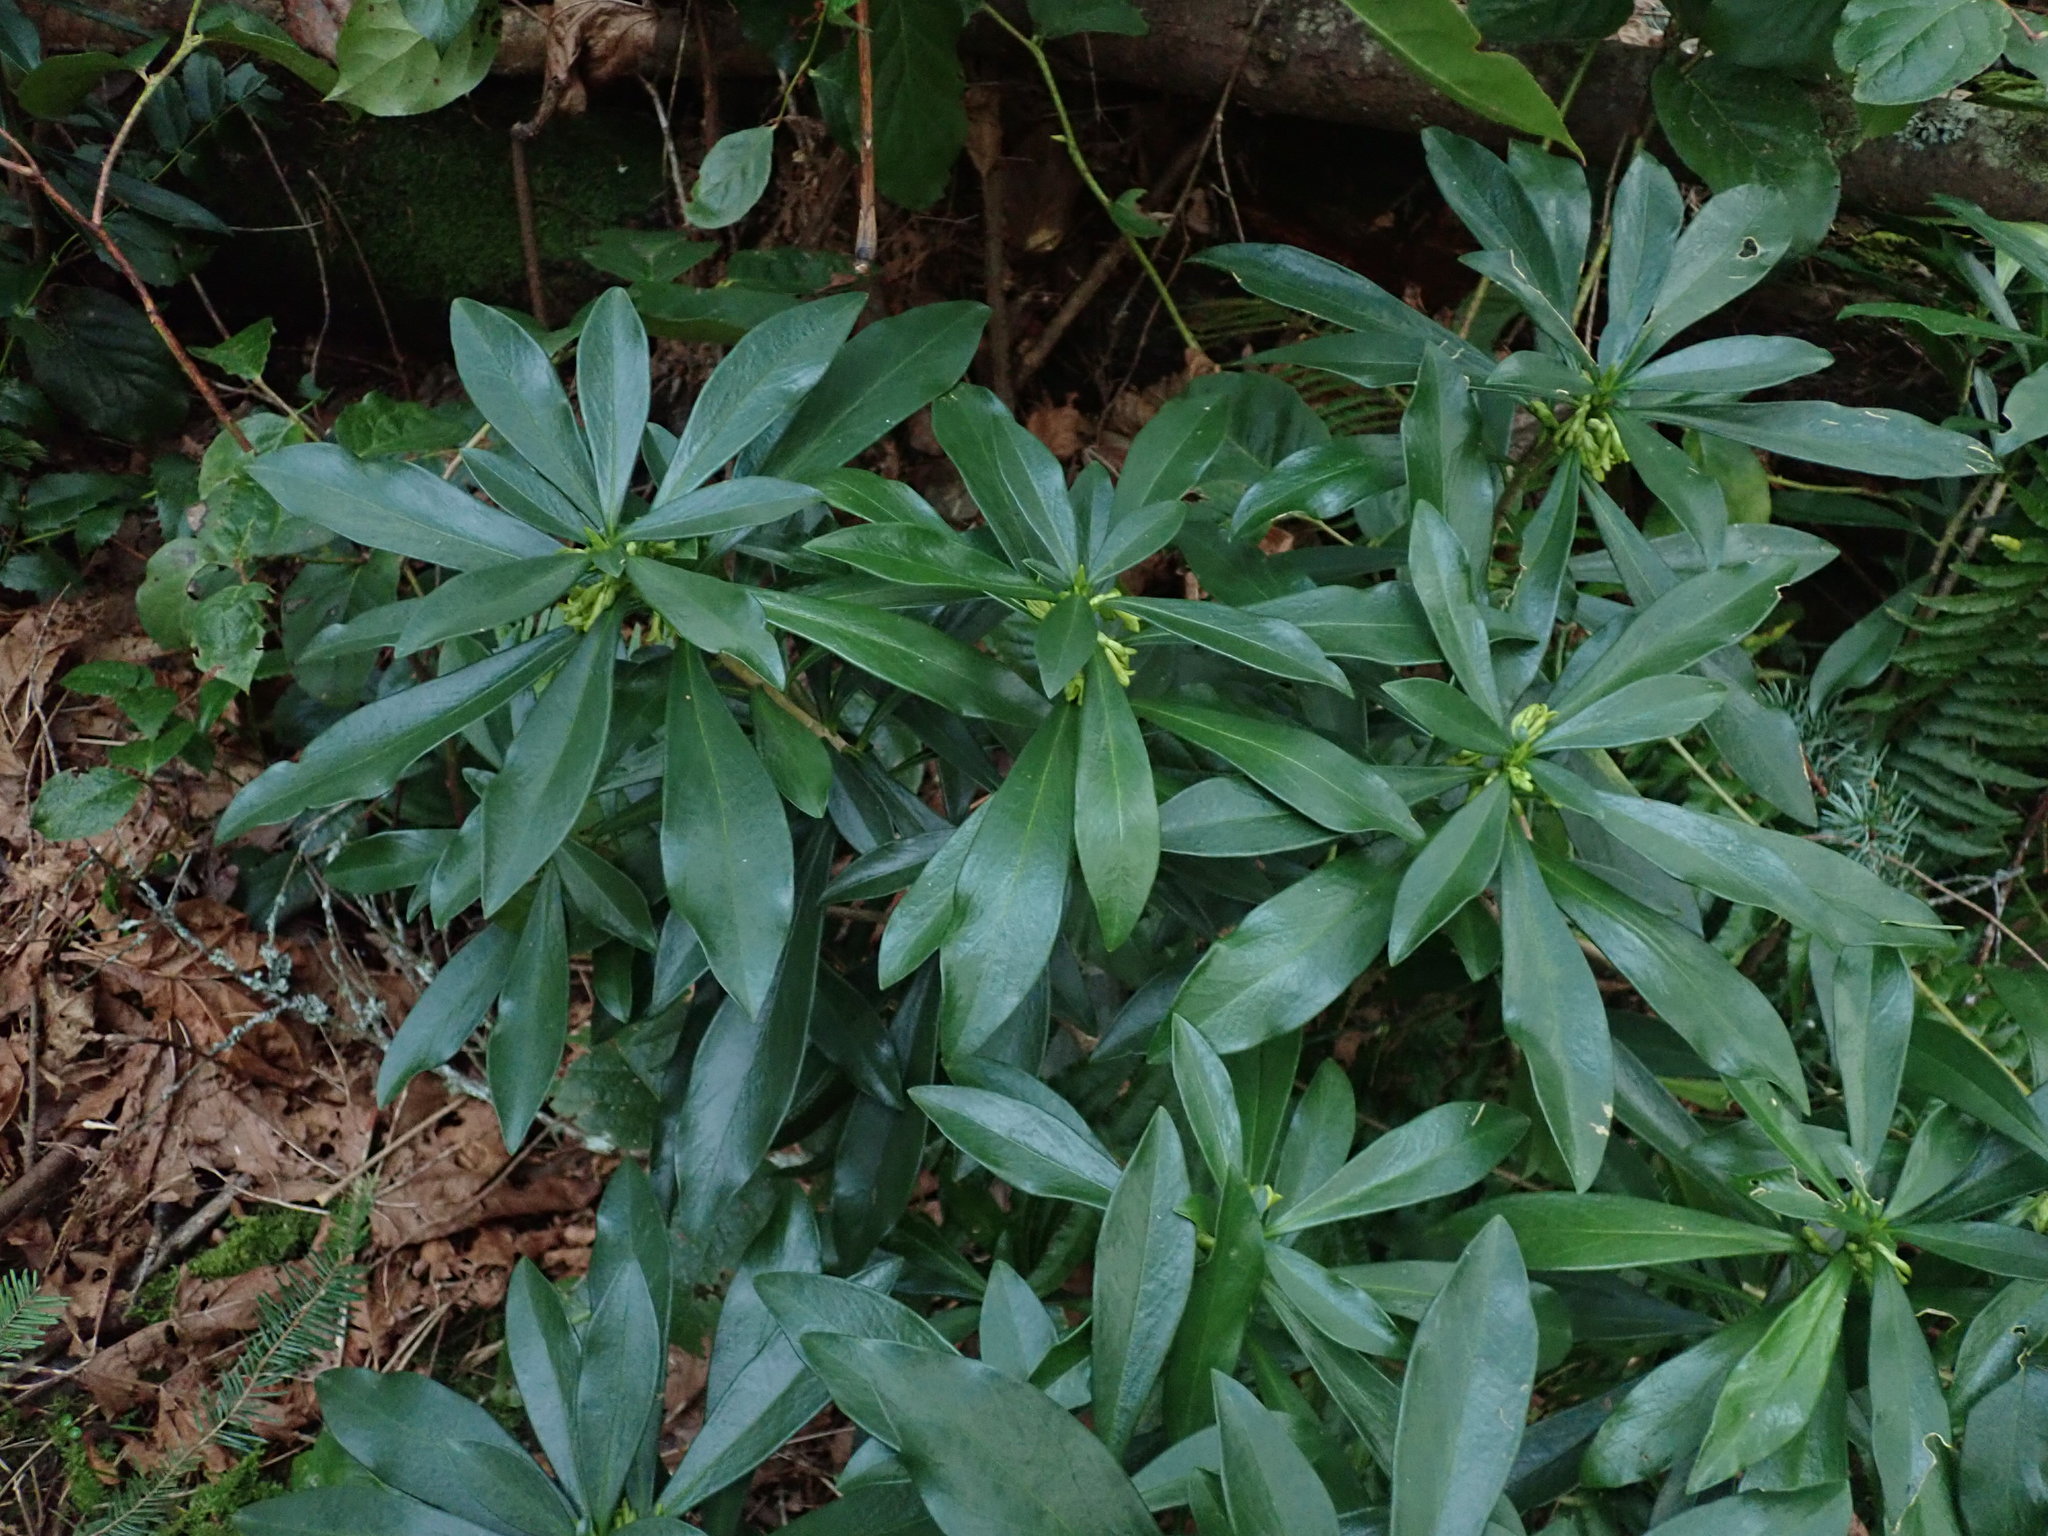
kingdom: Plantae
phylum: Tracheophyta
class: Magnoliopsida
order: Malvales
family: Thymelaeaceae
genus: Daphne
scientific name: Daphne laureola
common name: Spurge-laurel
